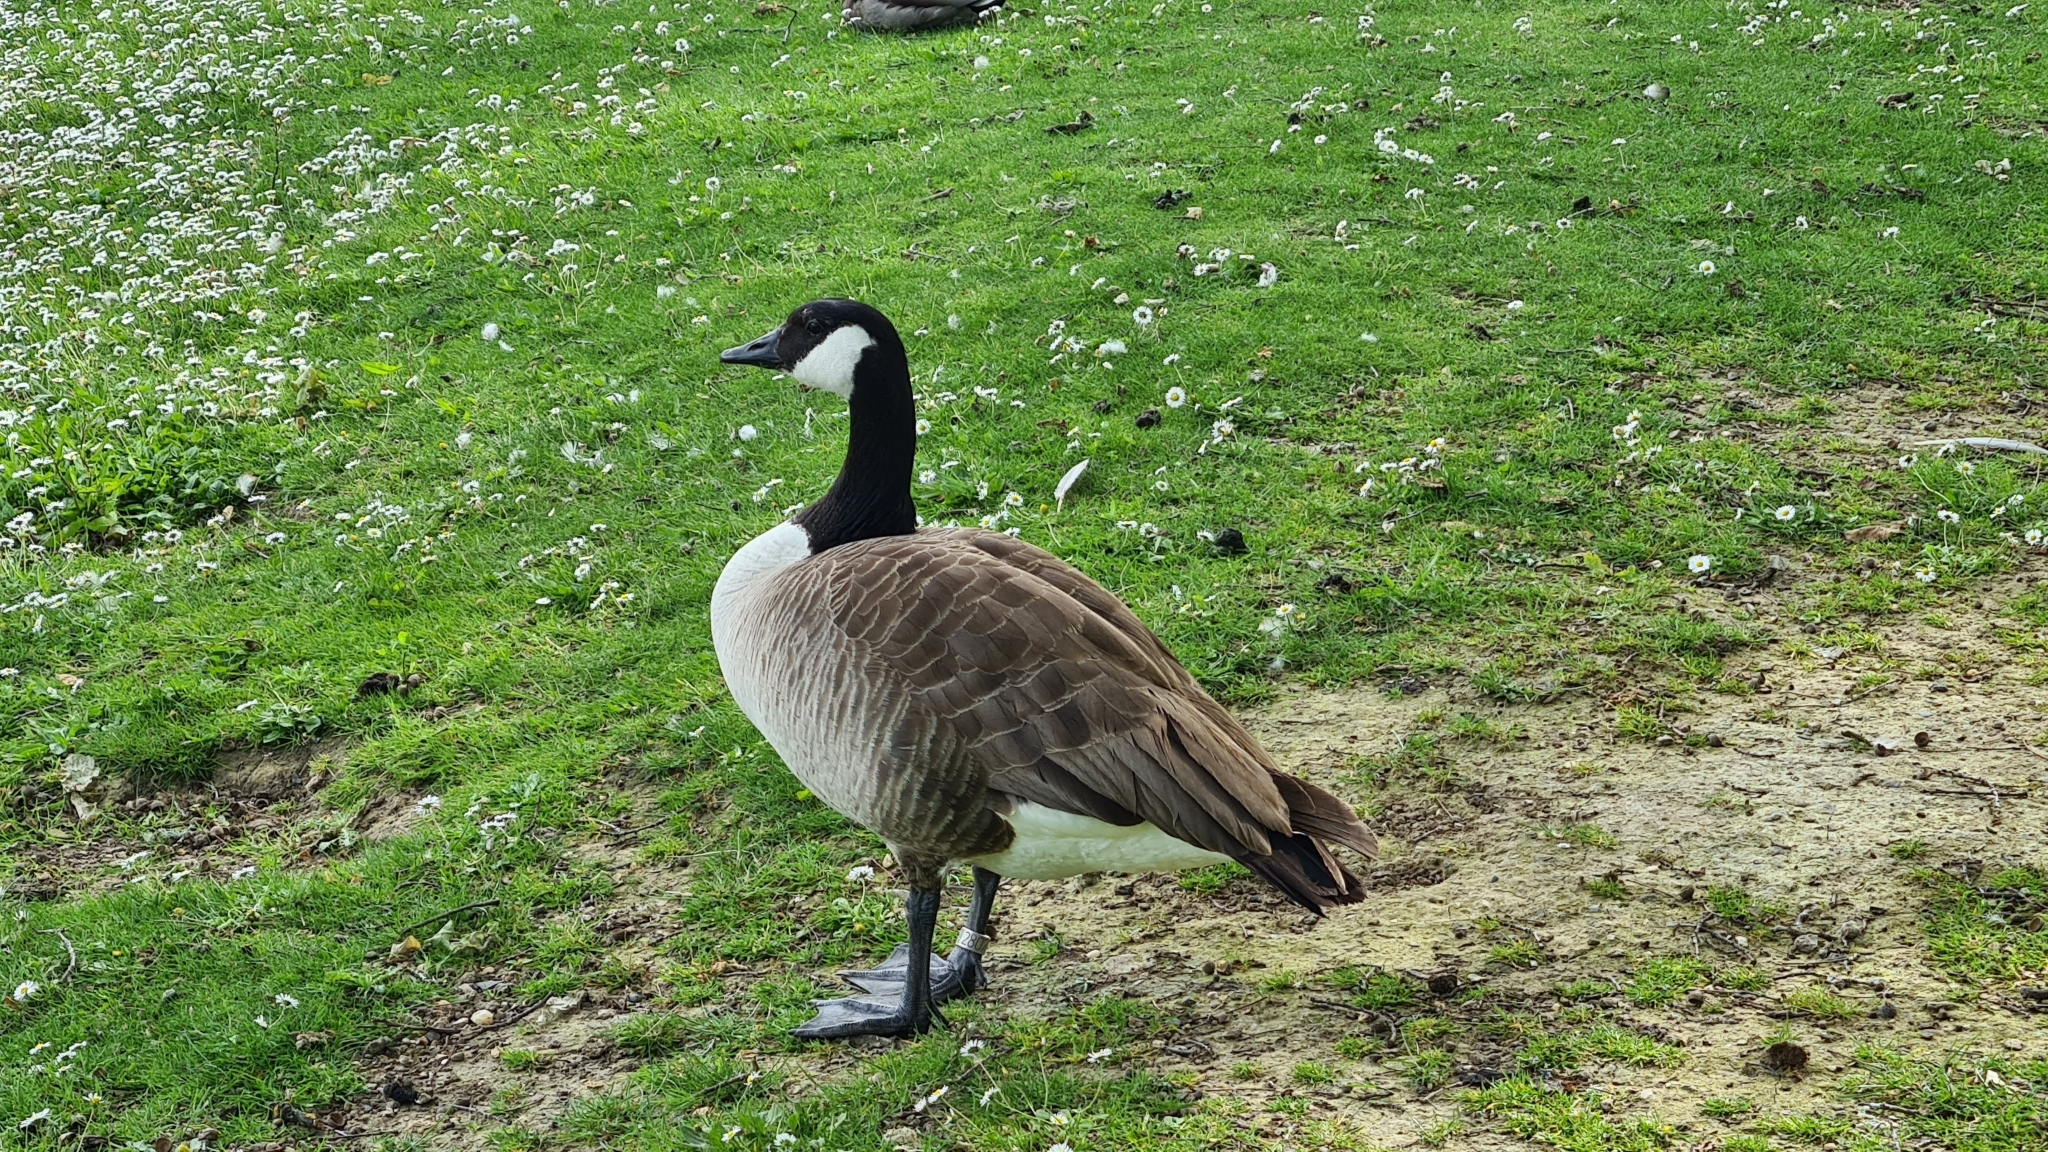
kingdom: Animalia
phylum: Chordata
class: Aves
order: Anseriformes
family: Anatidae
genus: Branta
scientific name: Branta canadensis
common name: Canada goose
